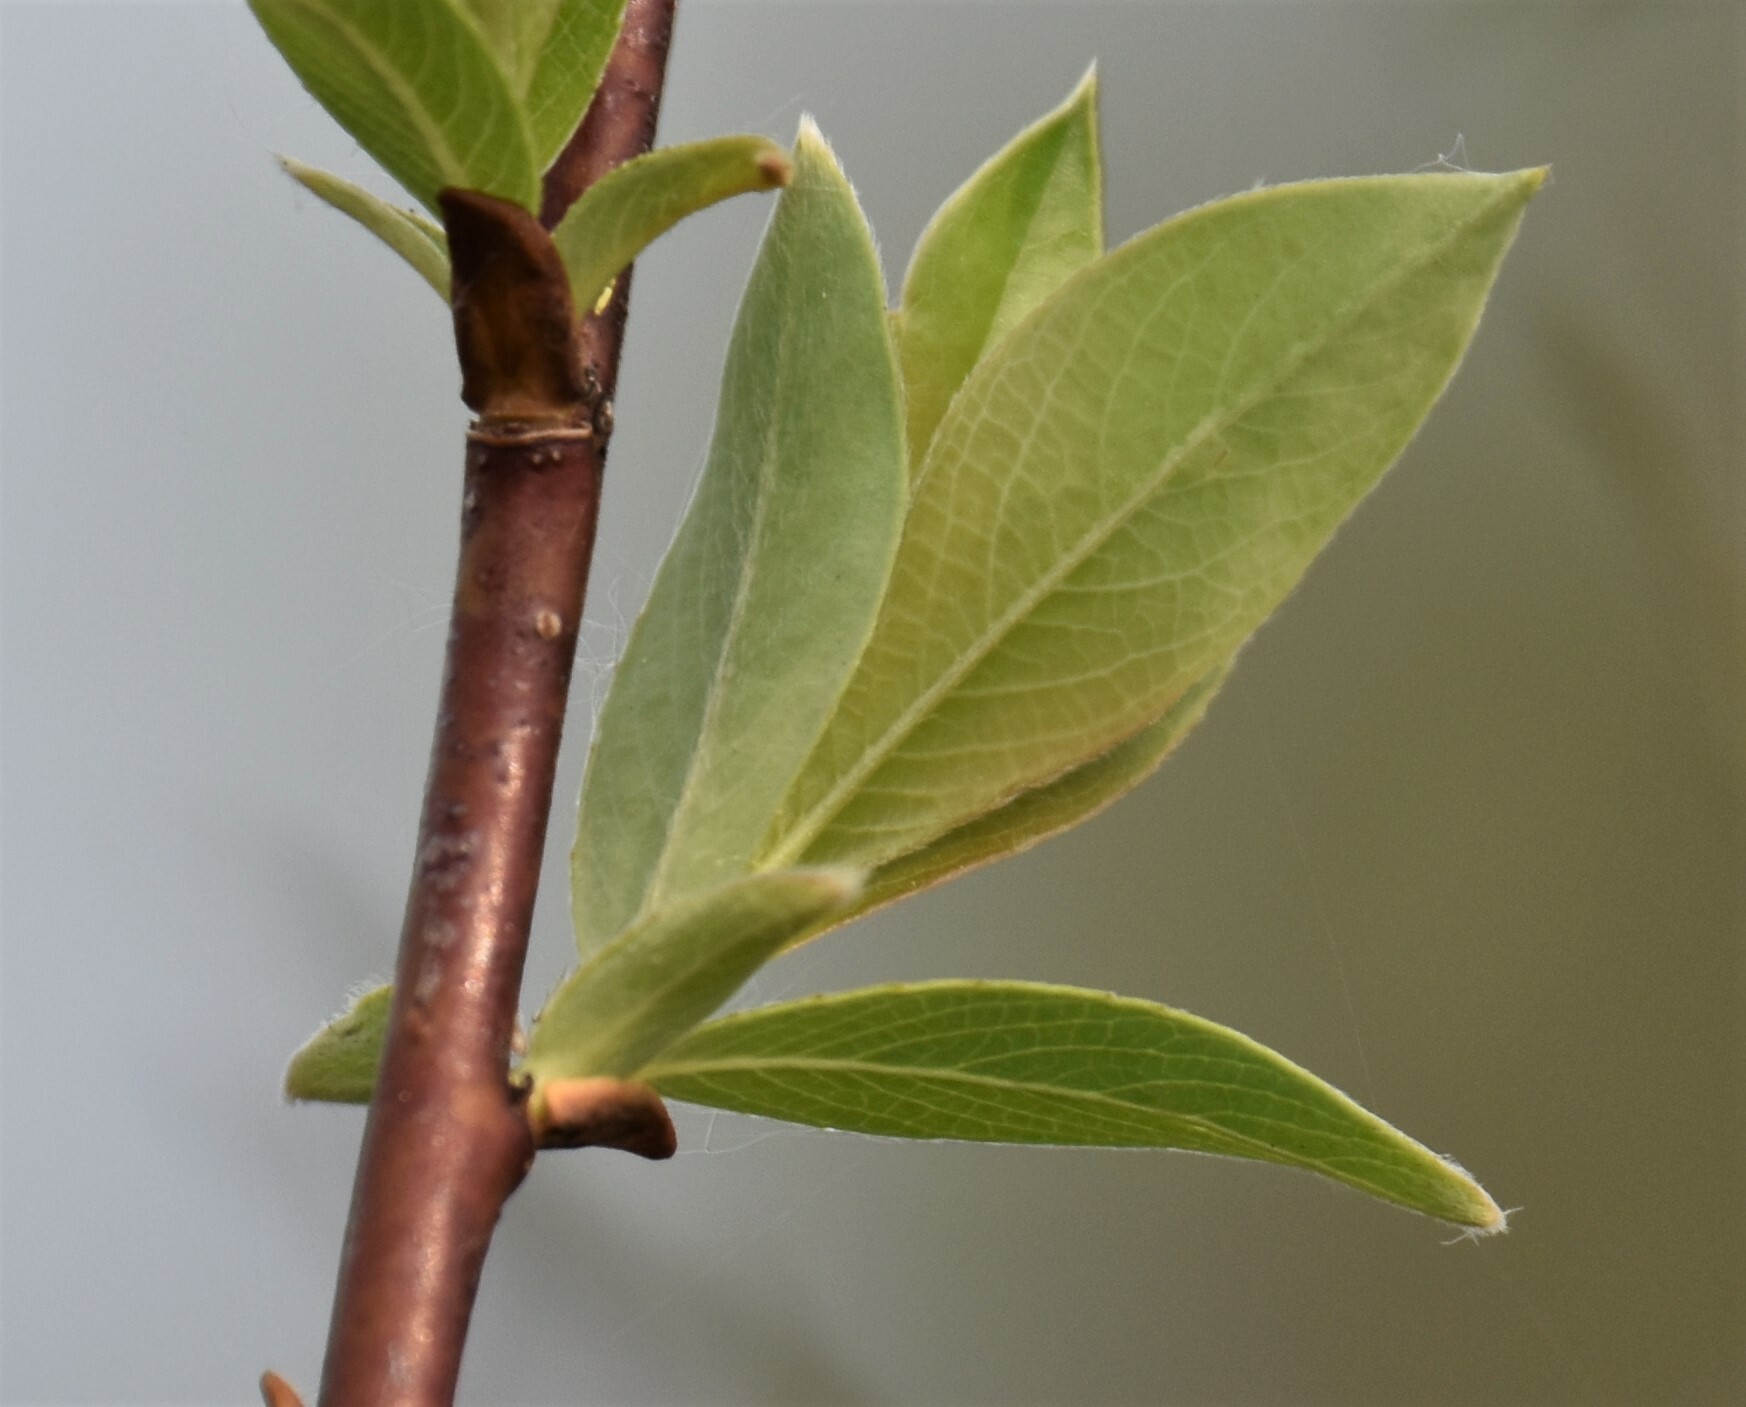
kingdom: Plantae
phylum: Tracheophyta
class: Magnoliopsida
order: Malpighiales
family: Salicaceae
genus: Salix
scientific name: Salix planifolia
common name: Mountain willow
